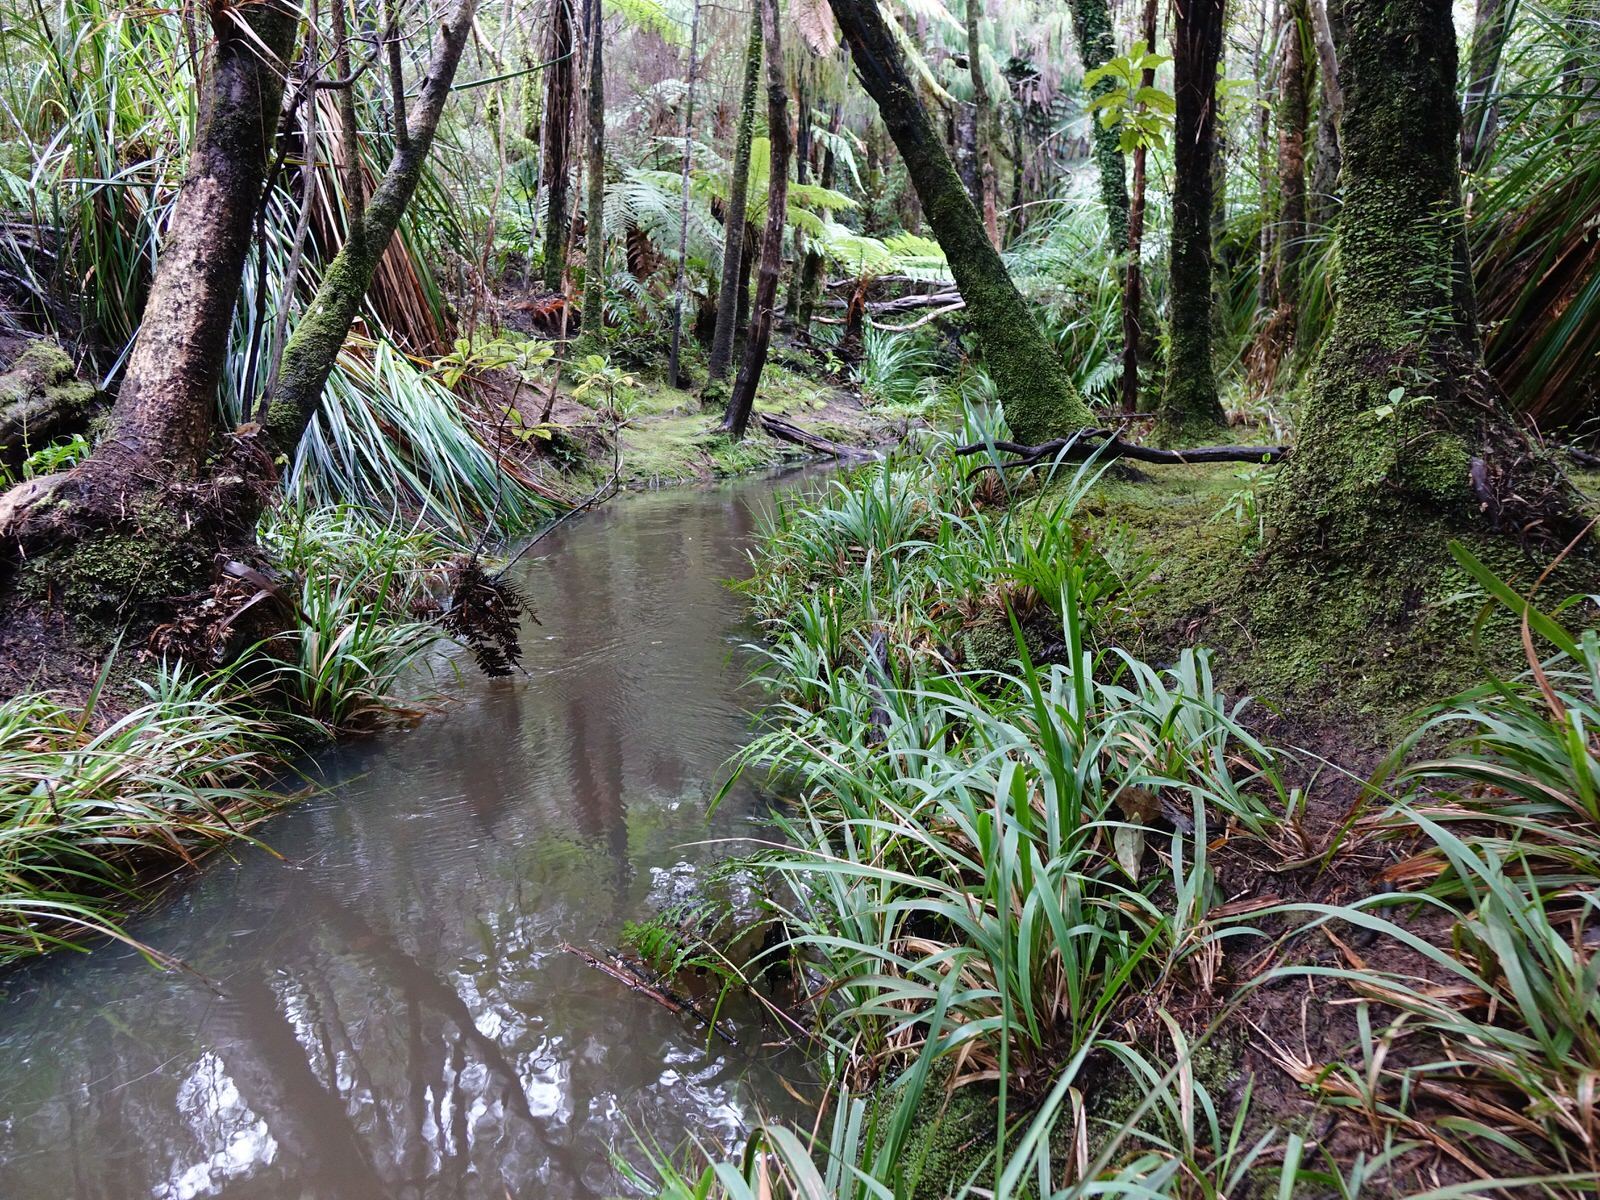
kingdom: Plantae
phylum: Tracheophyta
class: Liliopsida
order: Poales
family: Poaceae
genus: Ehrharta
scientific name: Ehrharta diplax
